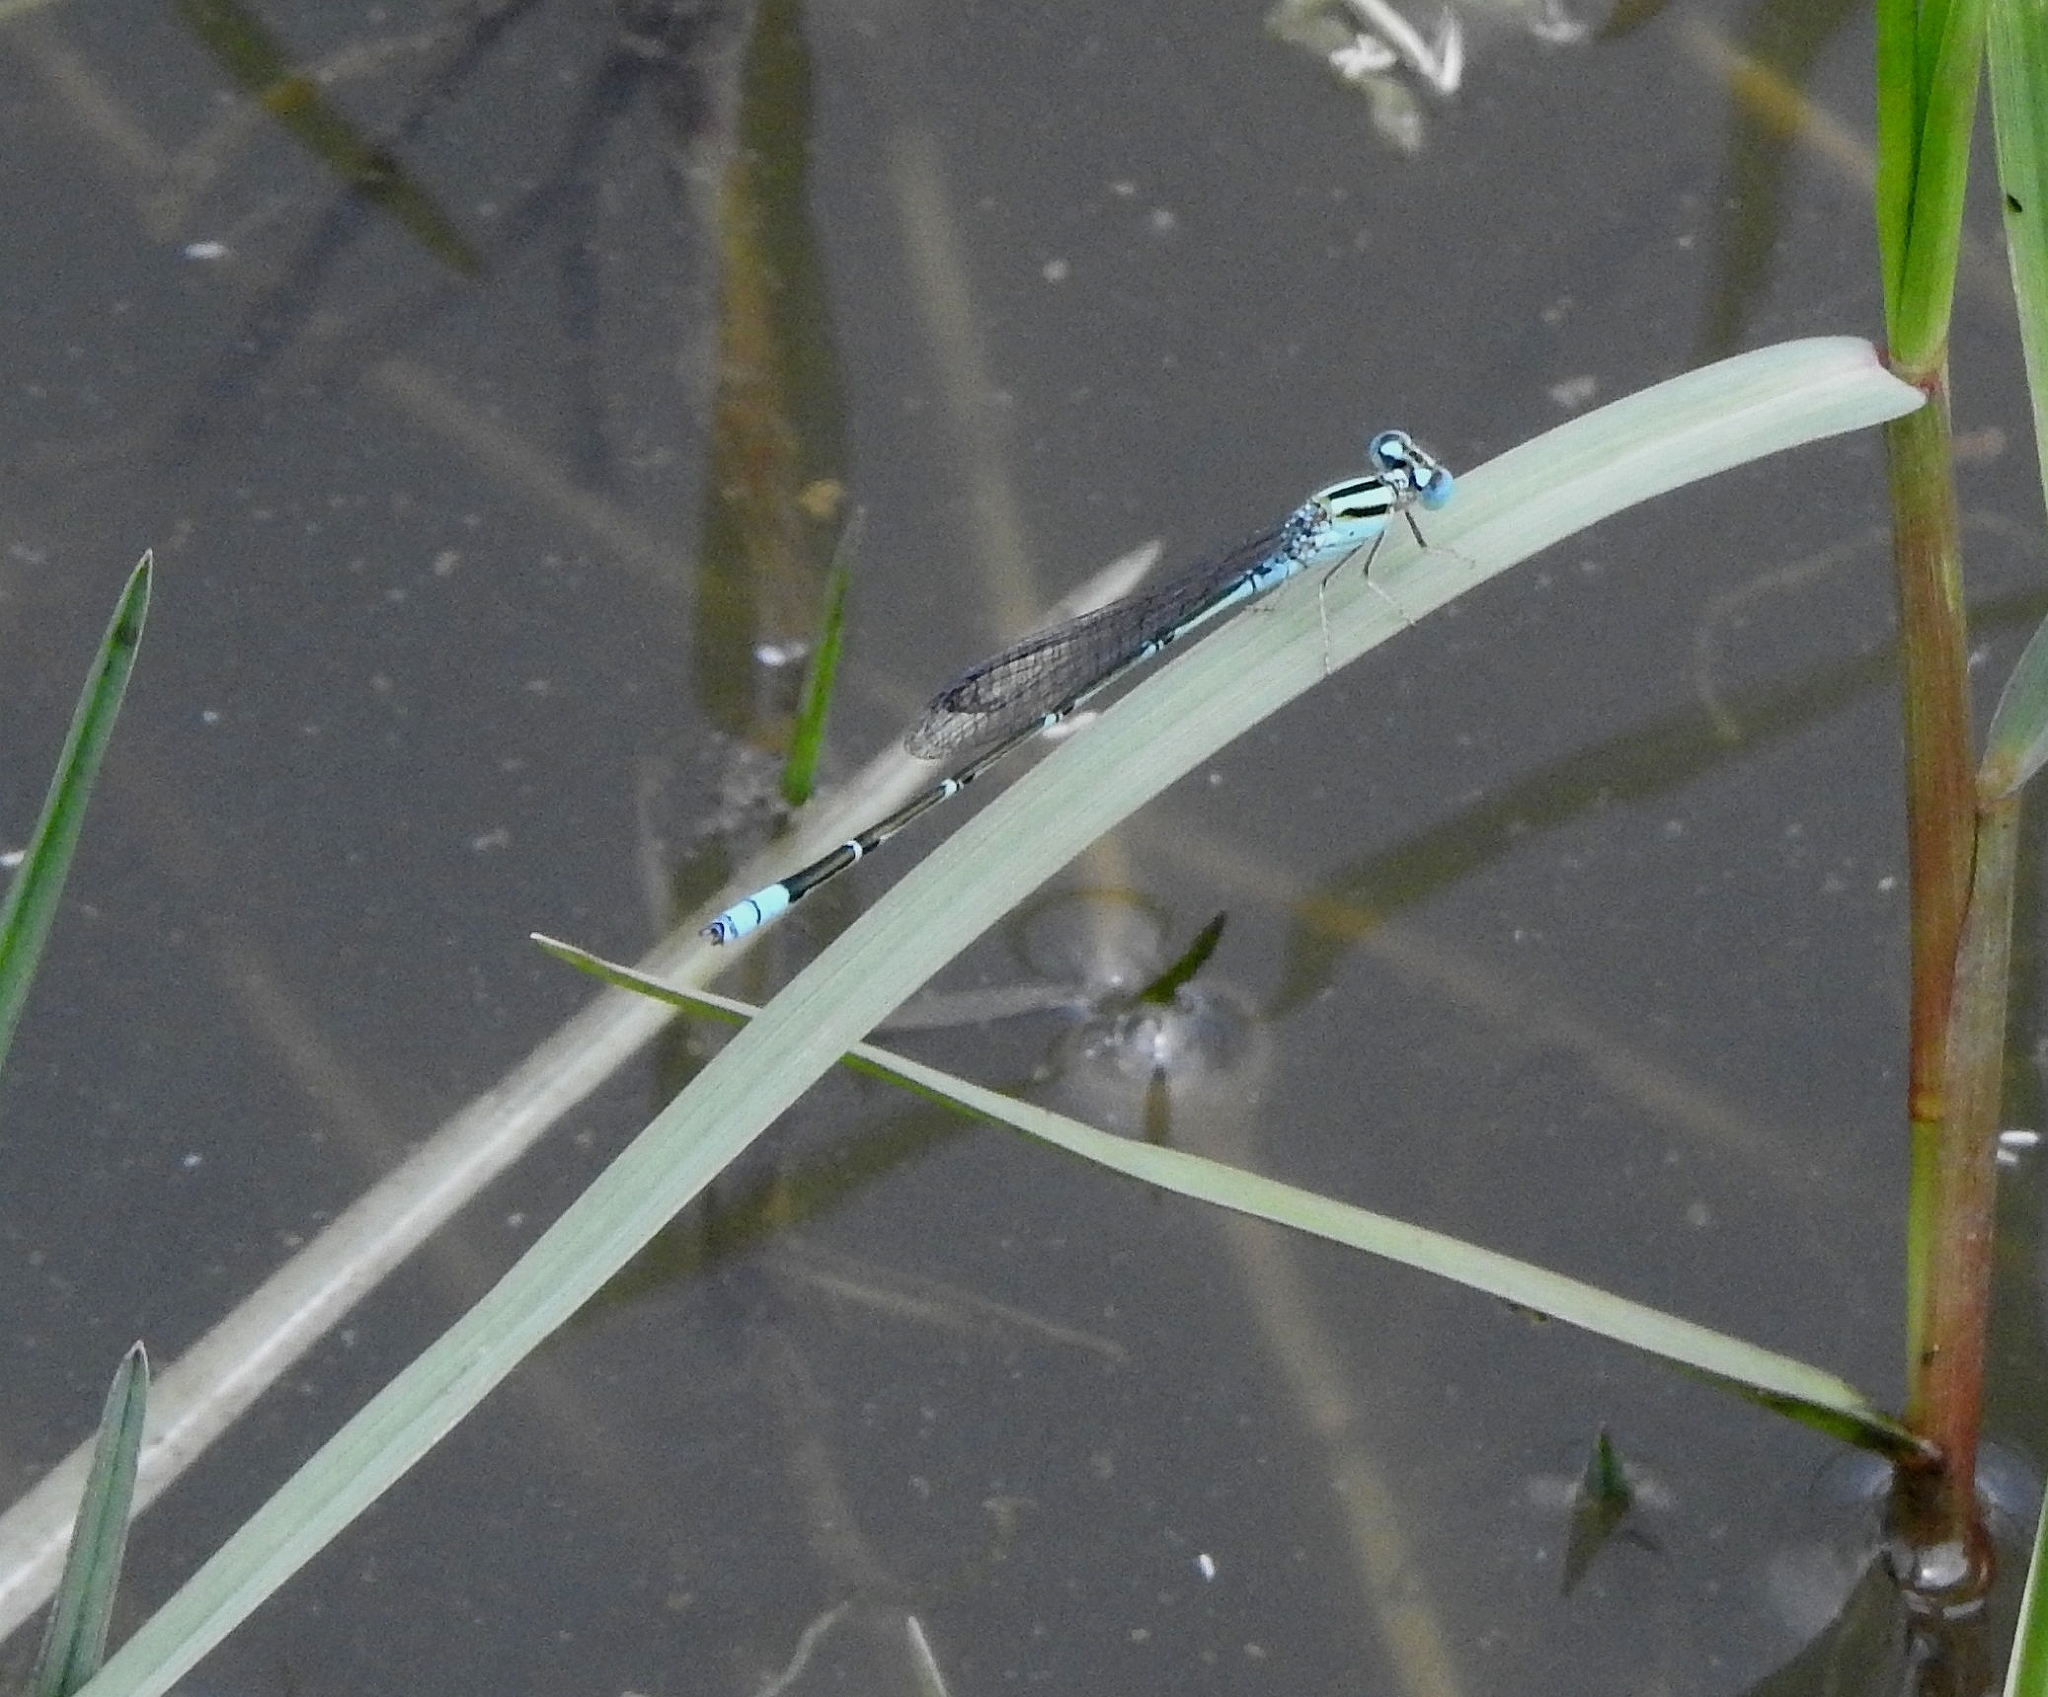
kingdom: Animalia
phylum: Arthropoda
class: Insecta
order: Odonata
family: Coenagrionidae
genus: Pseudagrion
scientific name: Pseudagrion microcephalum
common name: Blue riverdamsel
